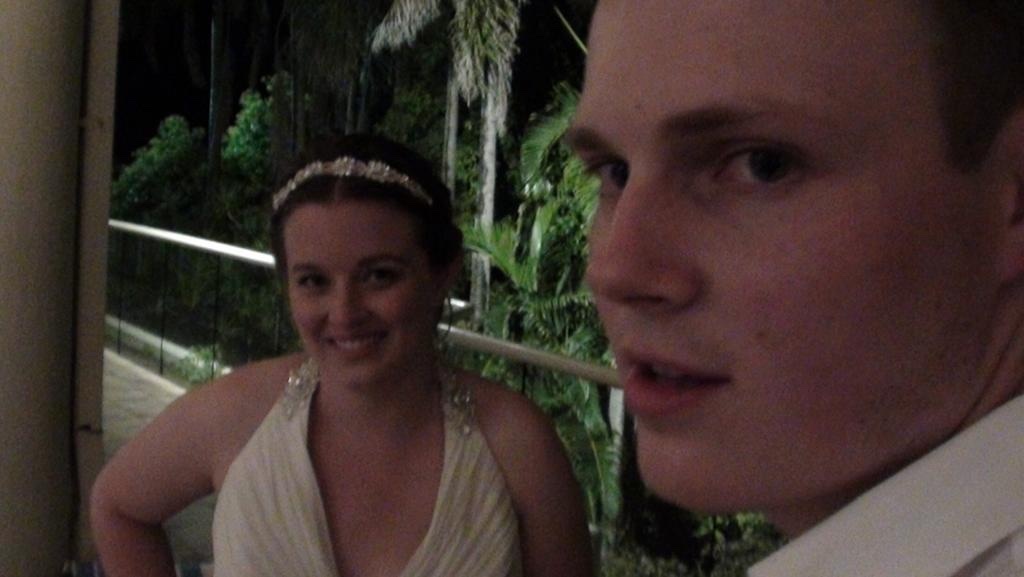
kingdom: Animalia
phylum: Chordata
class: Aves
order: Passeriformes
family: Sturnidae
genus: Sturnus
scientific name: Sturnus vulgaris
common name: Common starling
